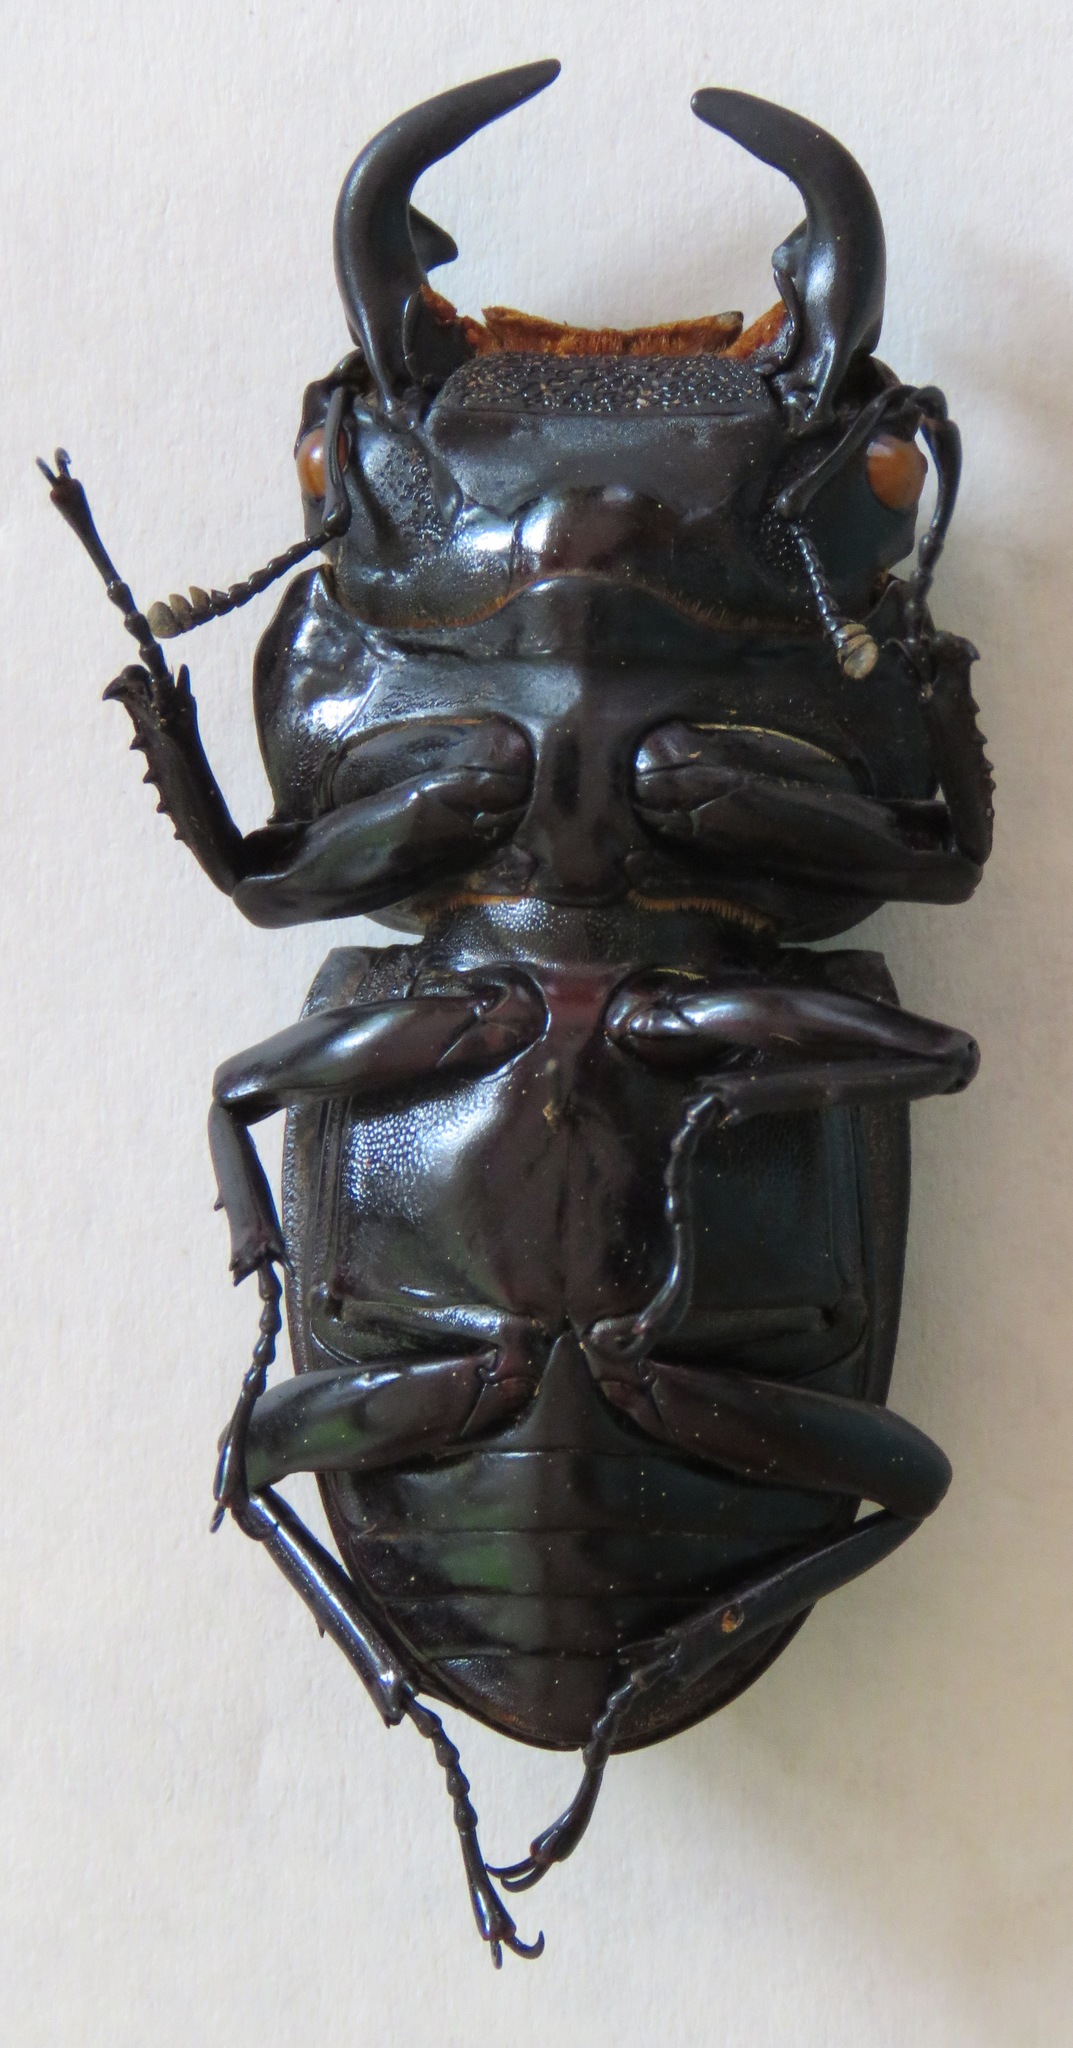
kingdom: Animalia
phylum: Arthropoda
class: Insecta
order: Coleoptera
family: Lucanidae
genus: Dorcus
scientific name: Dorcus antaeus
